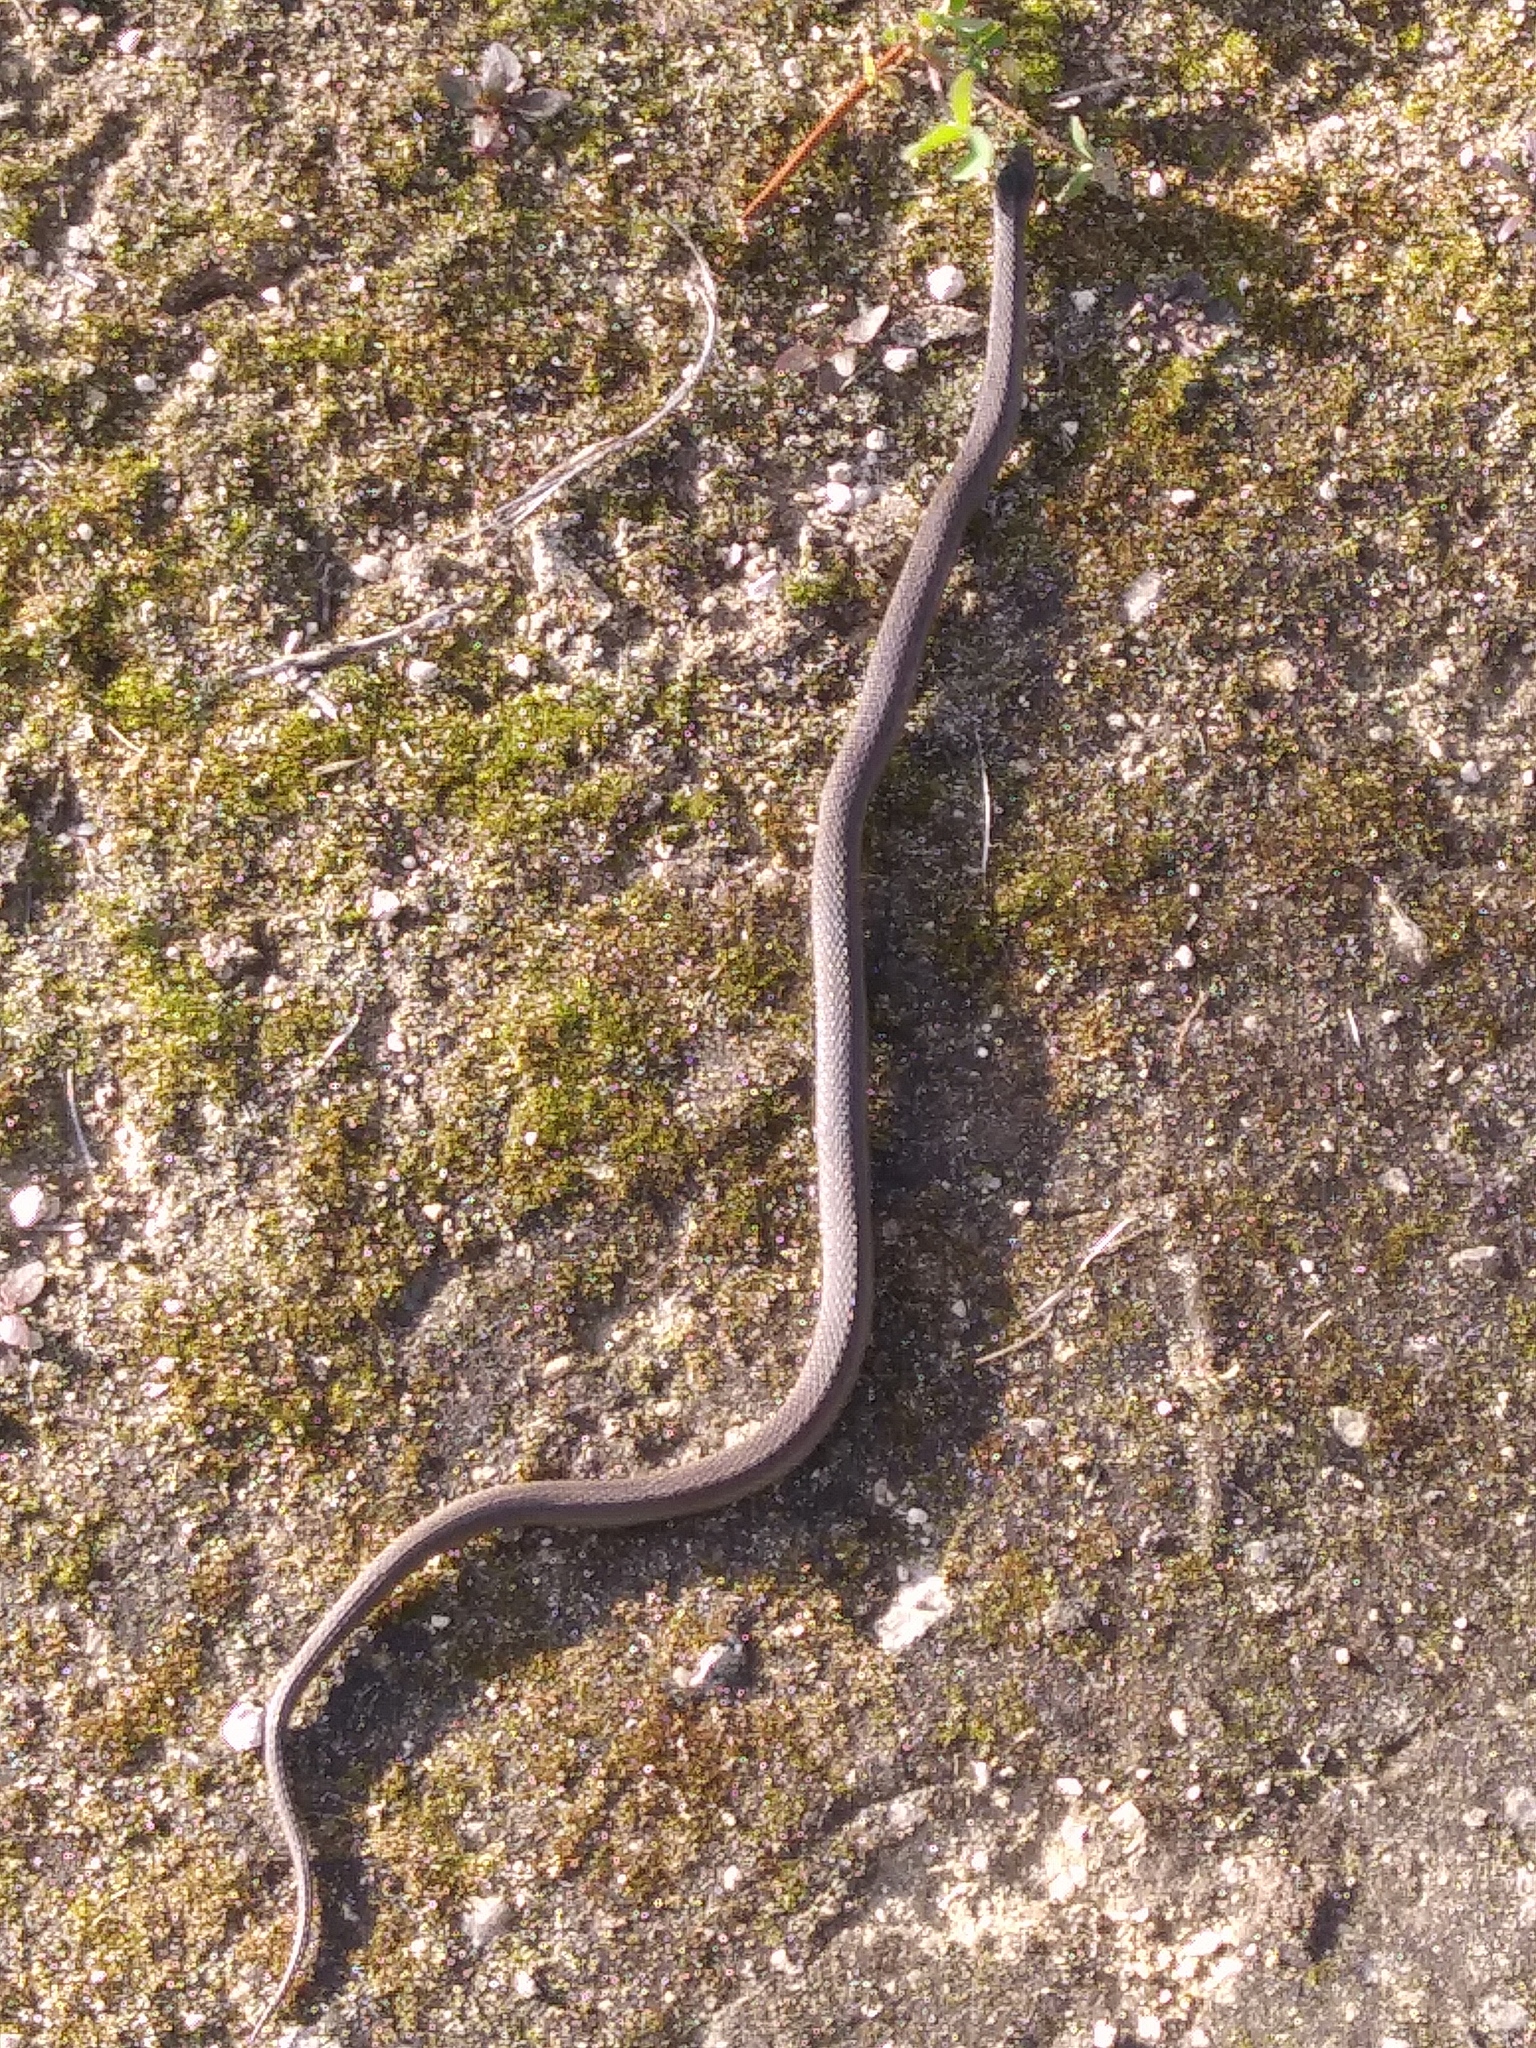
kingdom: Animalia
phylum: Chordata
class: Squamata
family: Colubridae
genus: Storeria
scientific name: Storeria occipitomaculata
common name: Redbelly snake
